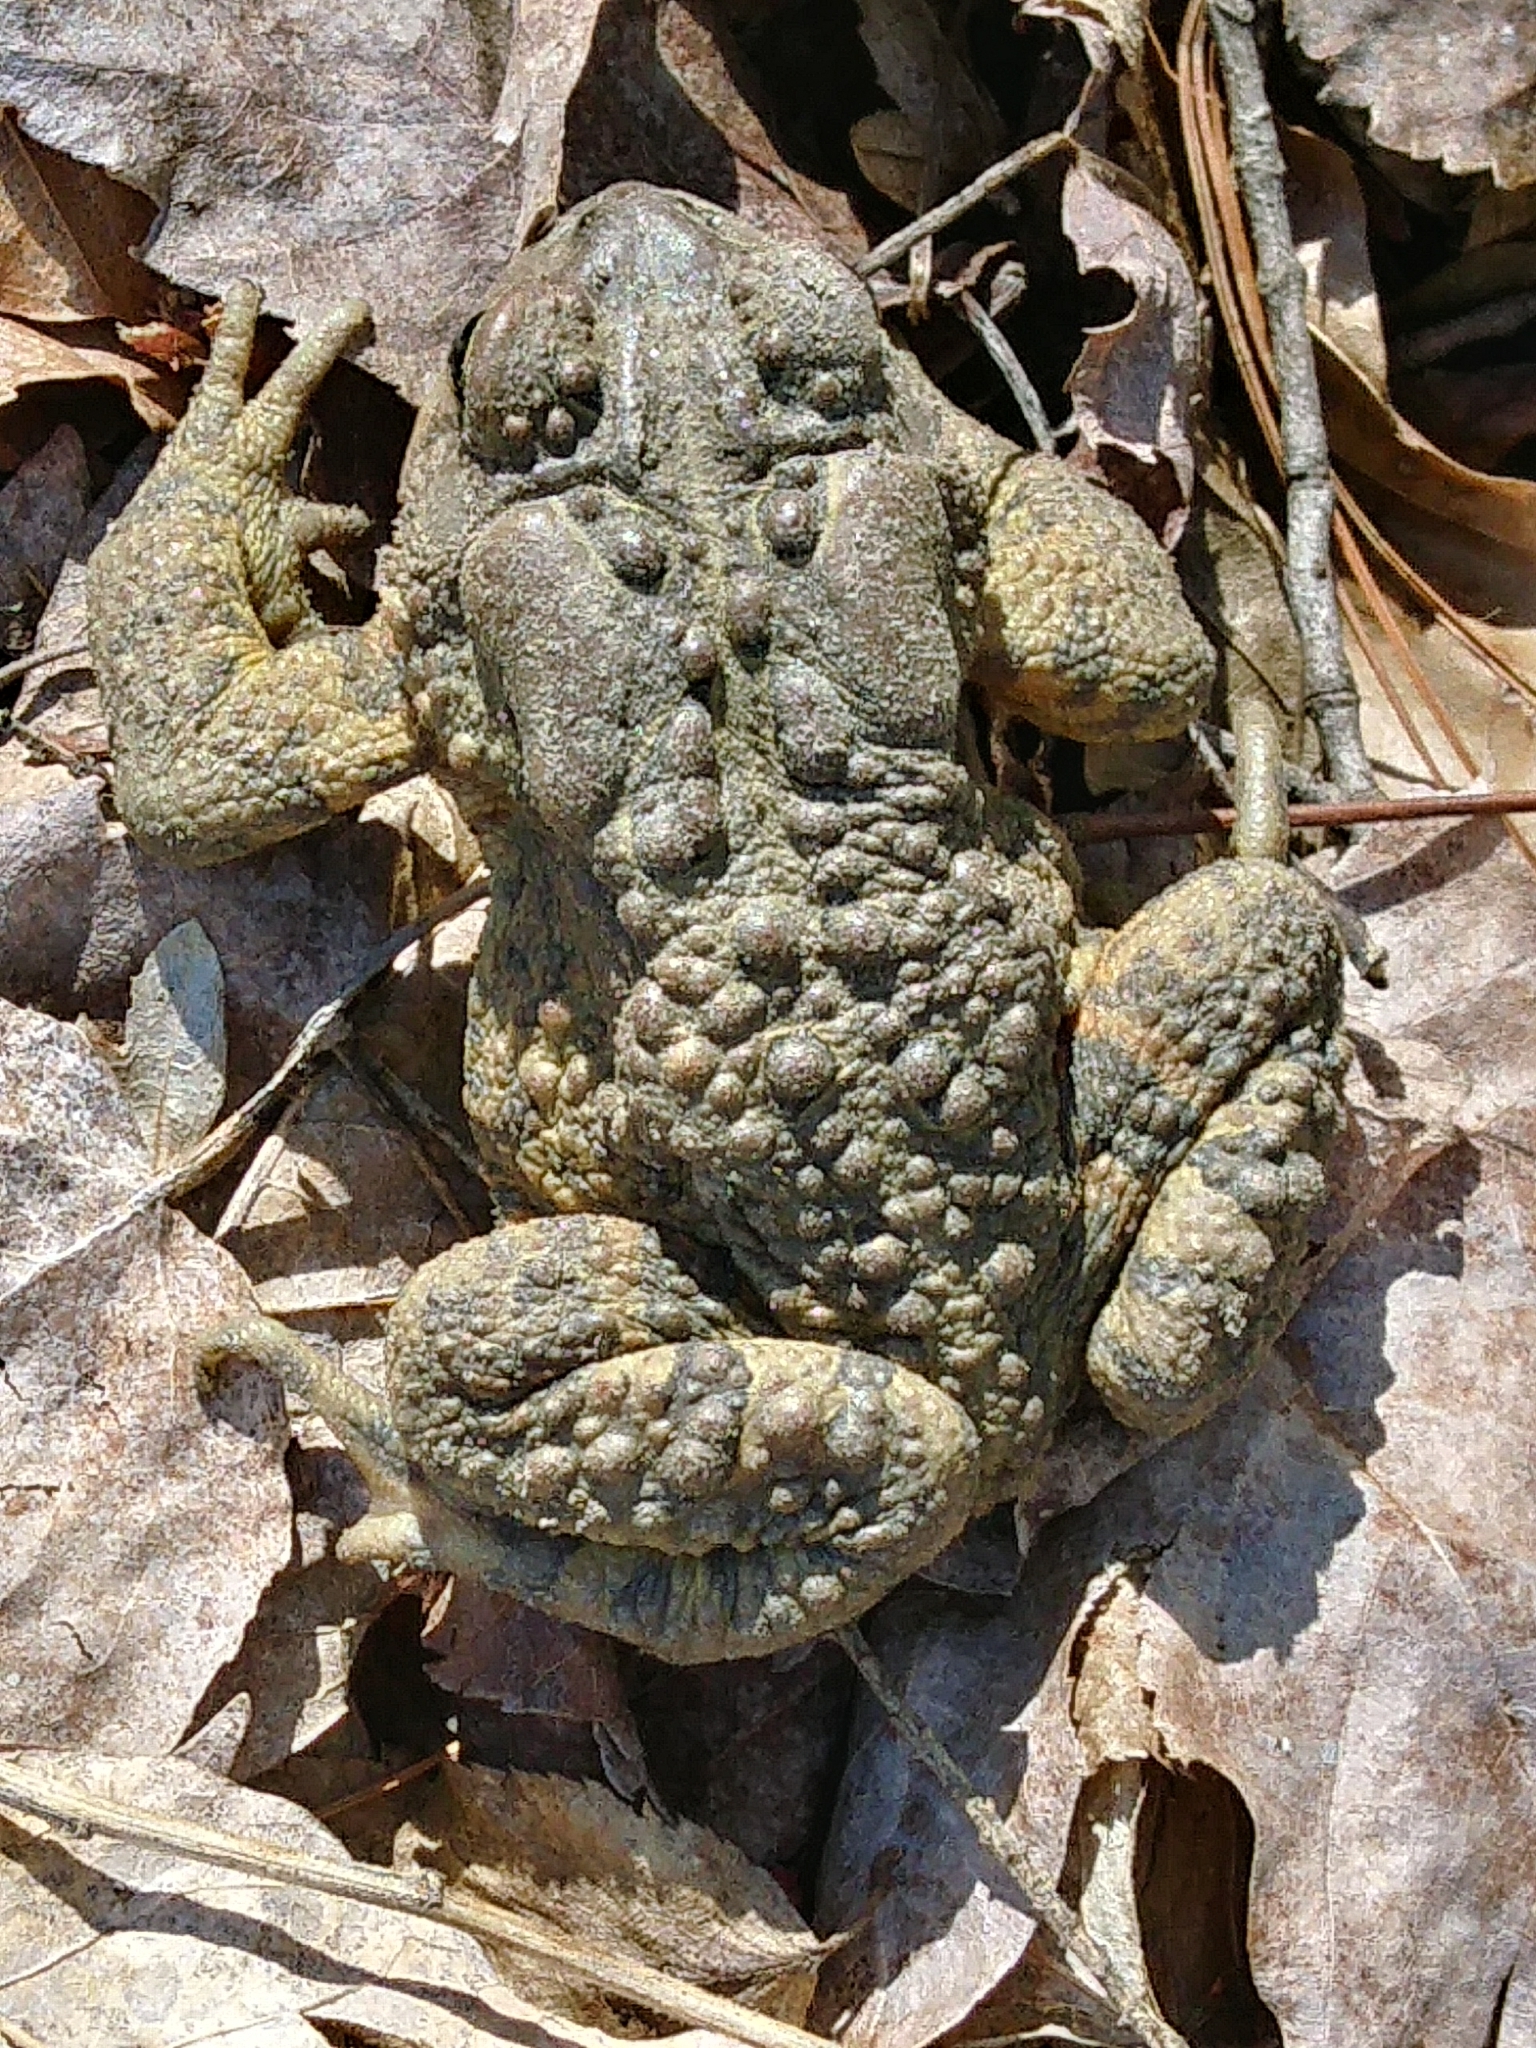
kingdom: Animalia
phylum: Chordata
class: Amphibia
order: Anura
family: Bufonidae
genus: Anaxyrus
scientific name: Anaxyrus americanus
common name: American toad
